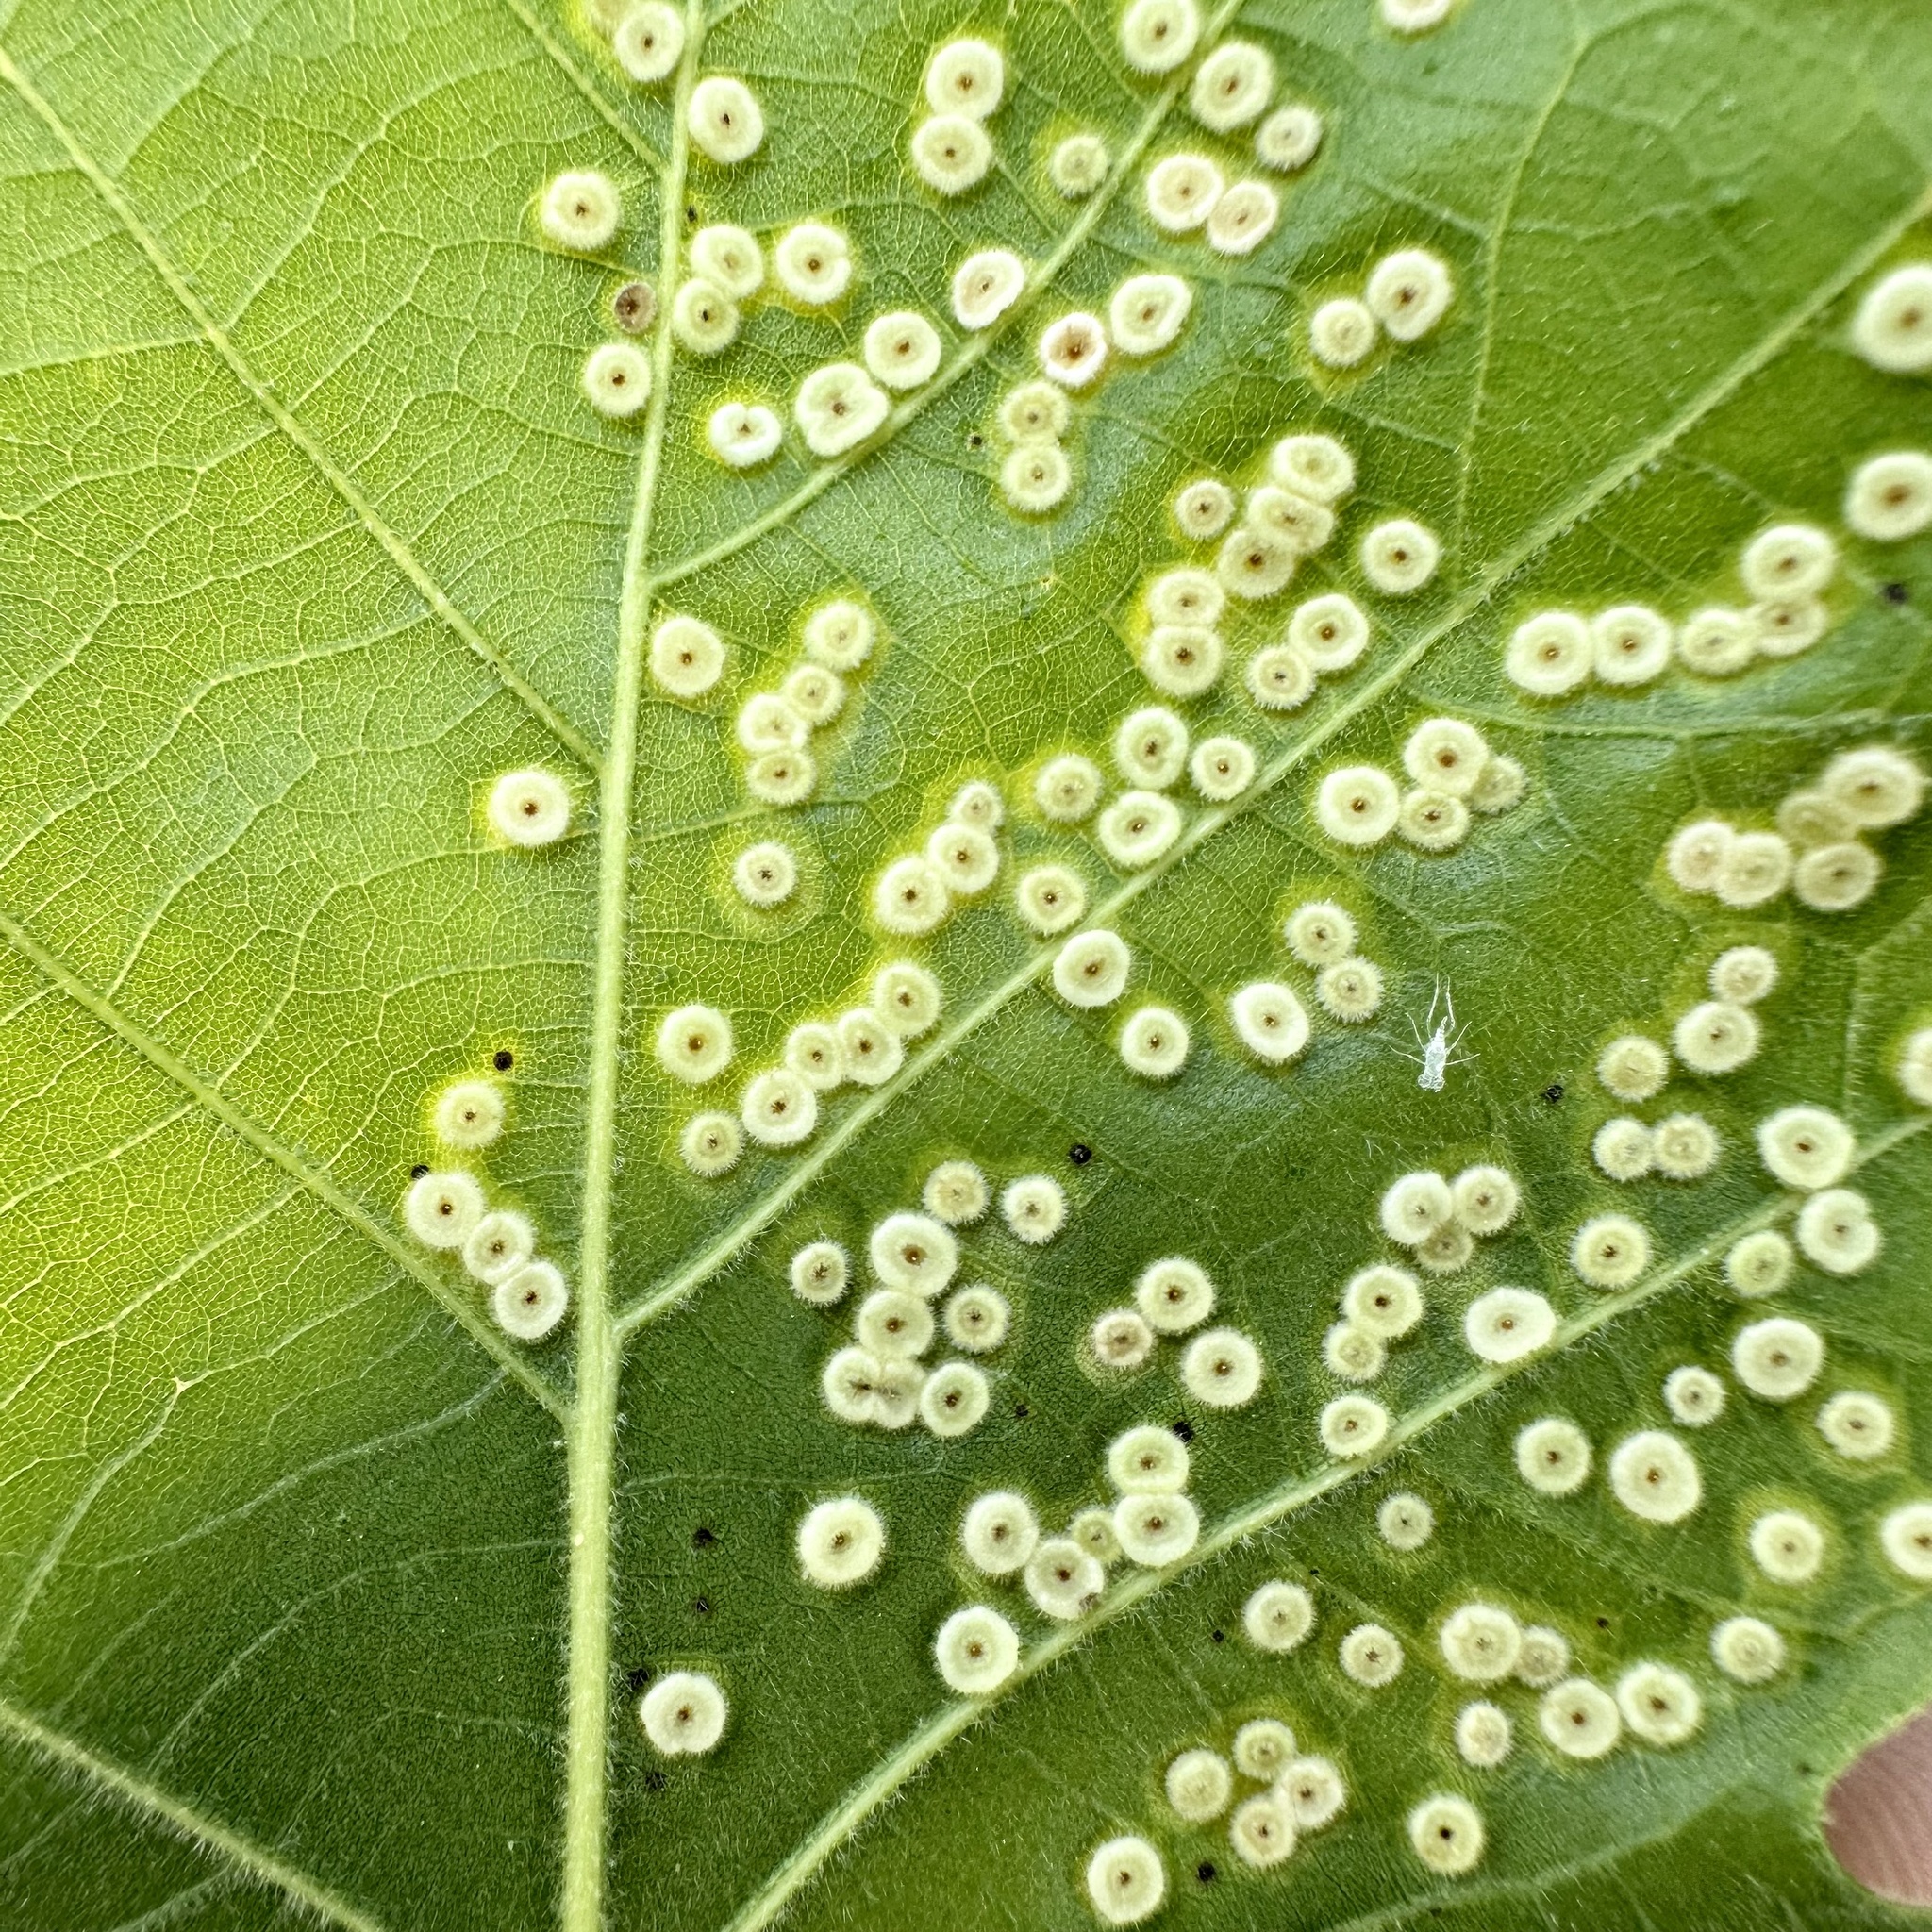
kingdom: Animalia
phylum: Arthropoda
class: Insecta
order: Hymenoptera
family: Cynipidae
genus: Neuroterus
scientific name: Neuroterus
